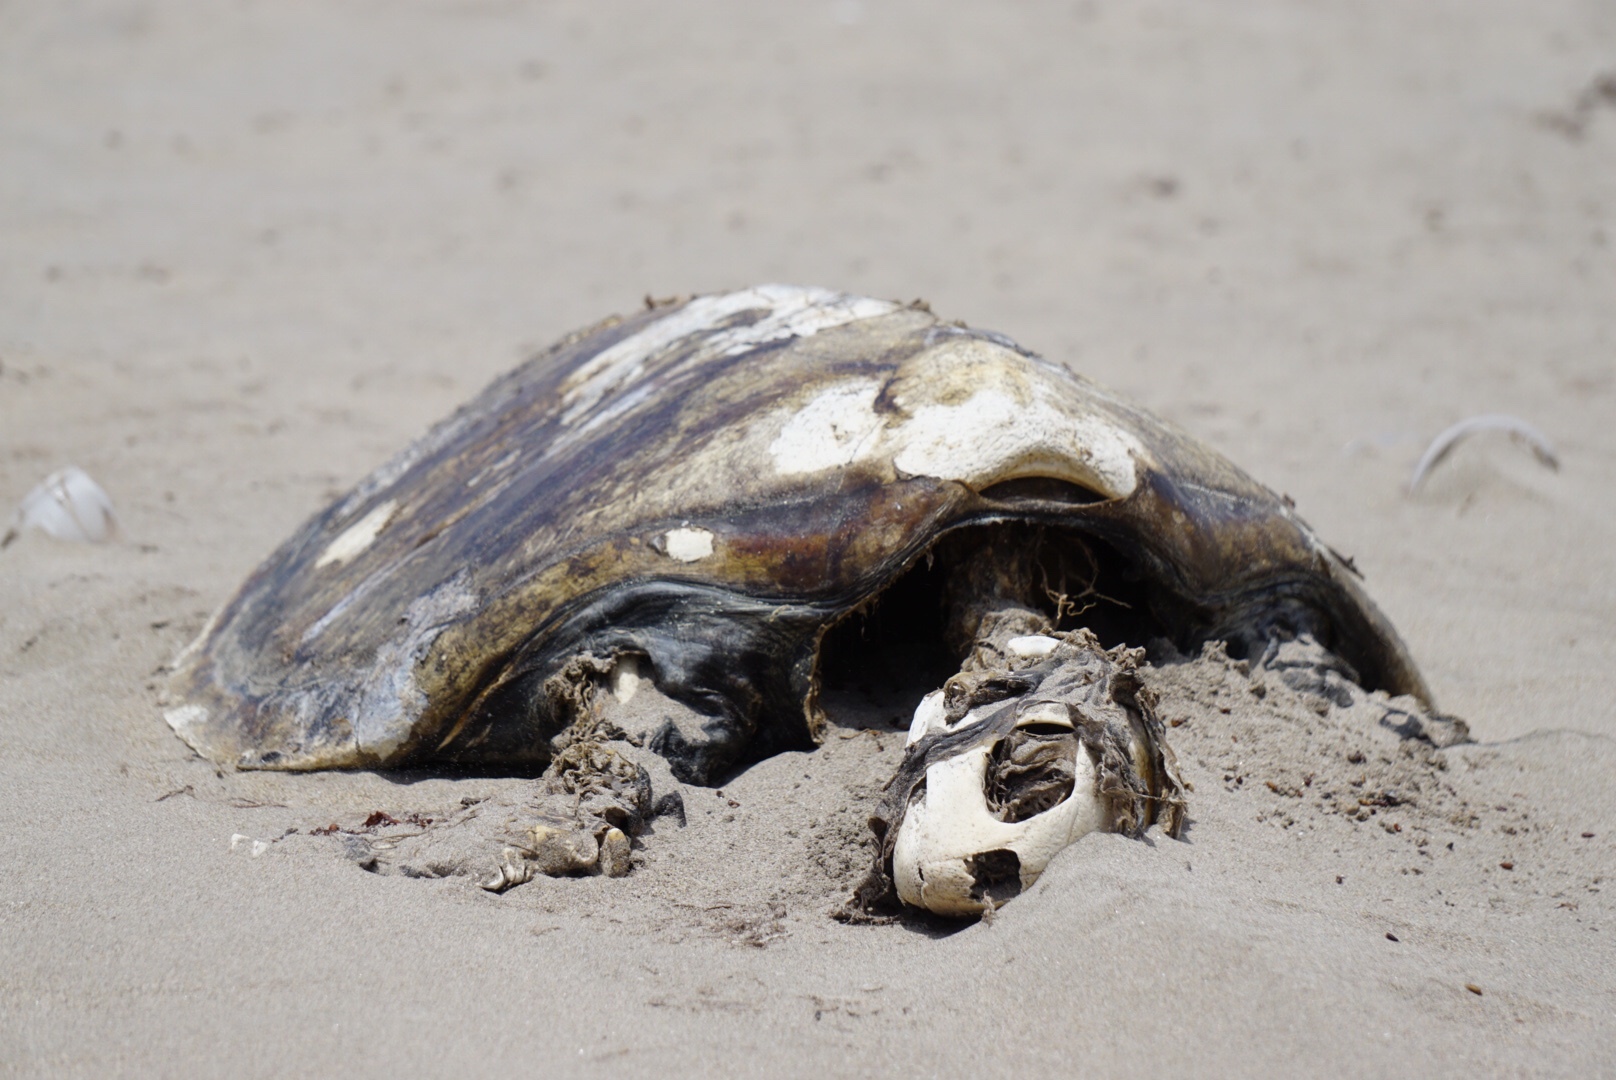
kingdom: Animalia
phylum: Chordata
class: Testudines
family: Cheloniidae
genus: Chelonia
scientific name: Chelonia mydas
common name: Green turtle
